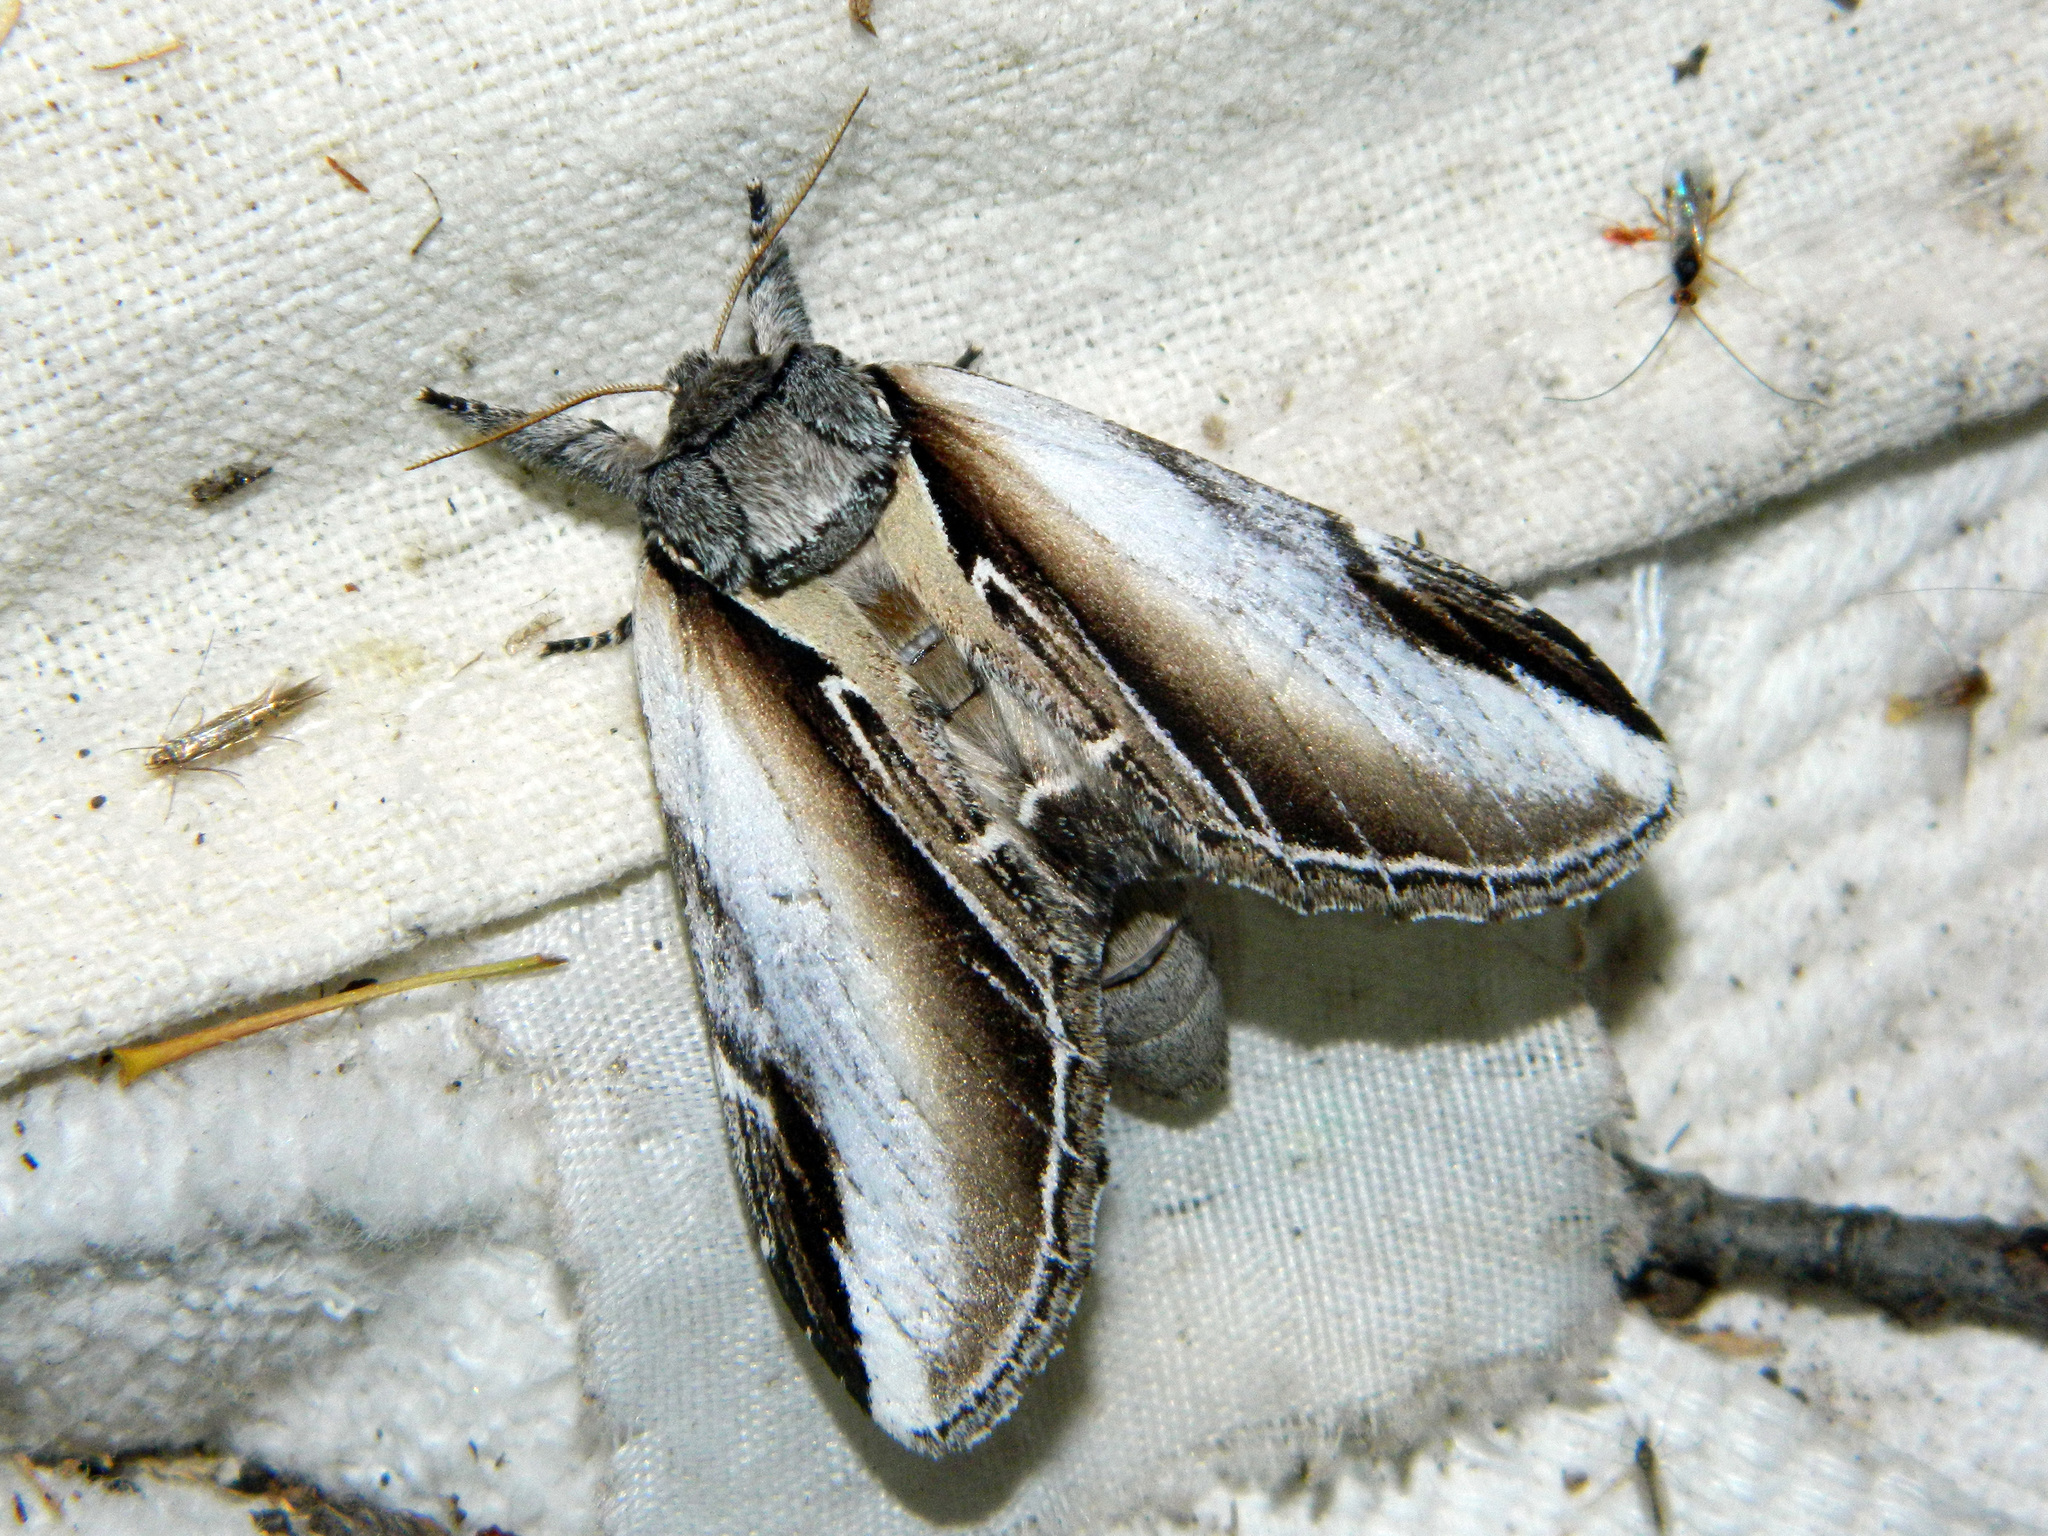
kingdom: Animalia
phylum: Arthropoda
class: Insecta
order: Lepidoptera
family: Notodontidae
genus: Pheosia
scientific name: Pheosia rimosa
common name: Black-rimmed prominent
